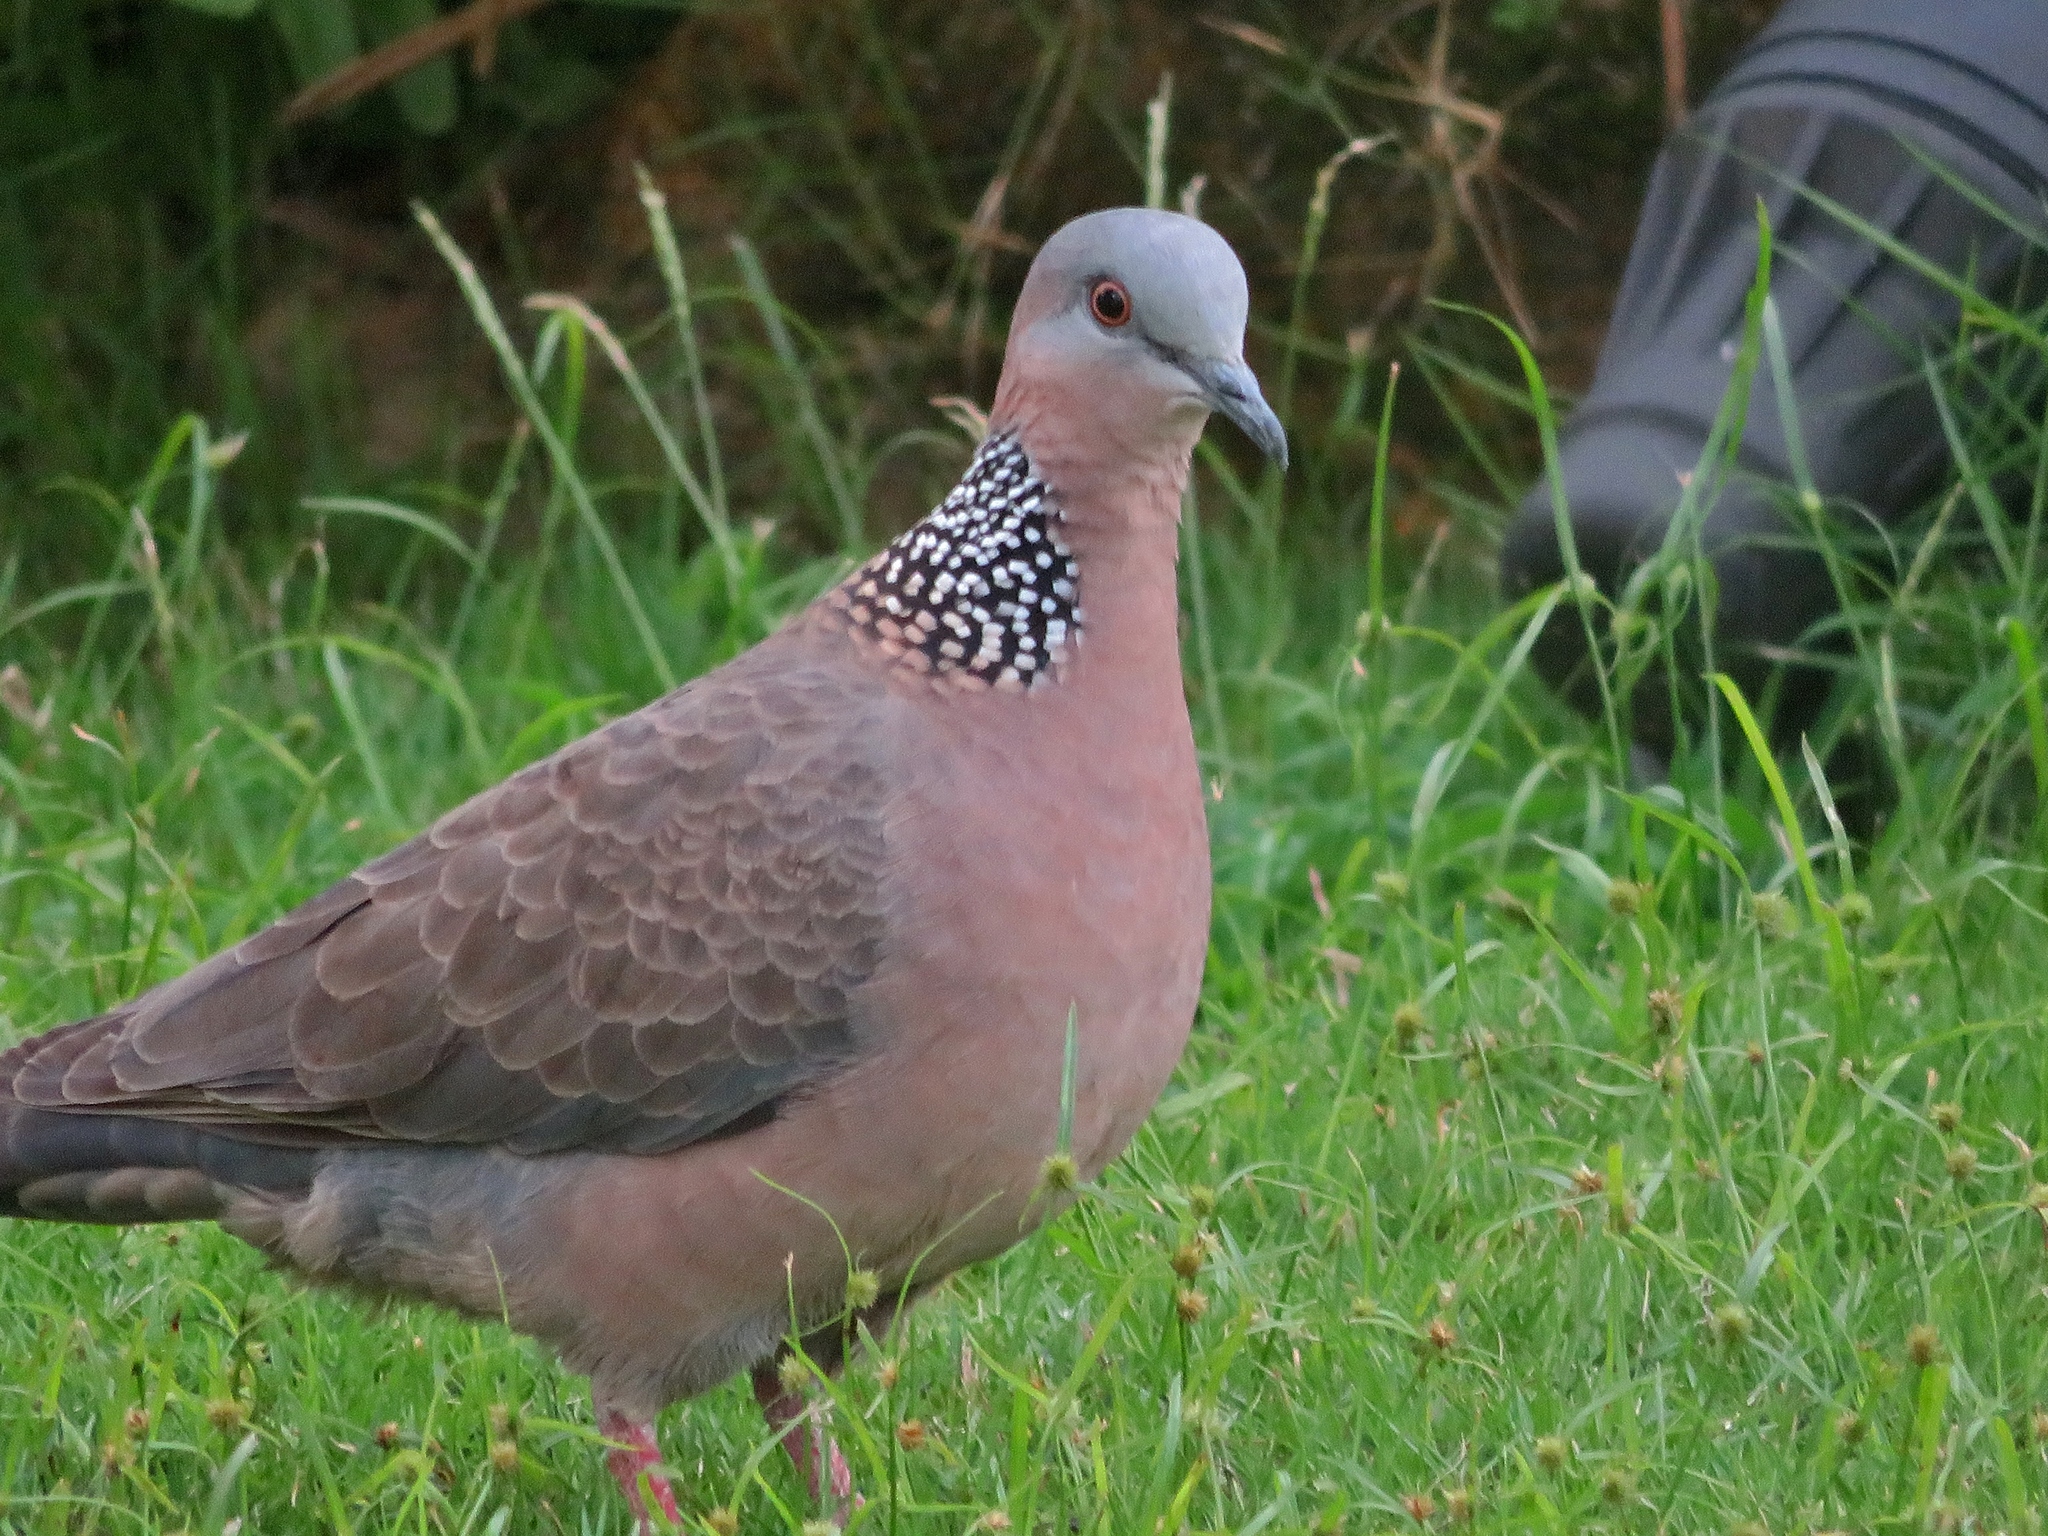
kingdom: Animalia
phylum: Chordata
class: Aves
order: Columbiformes
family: Columbidae
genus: Spilopelia
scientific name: Spilopelia chinensis
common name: Spotted dove
